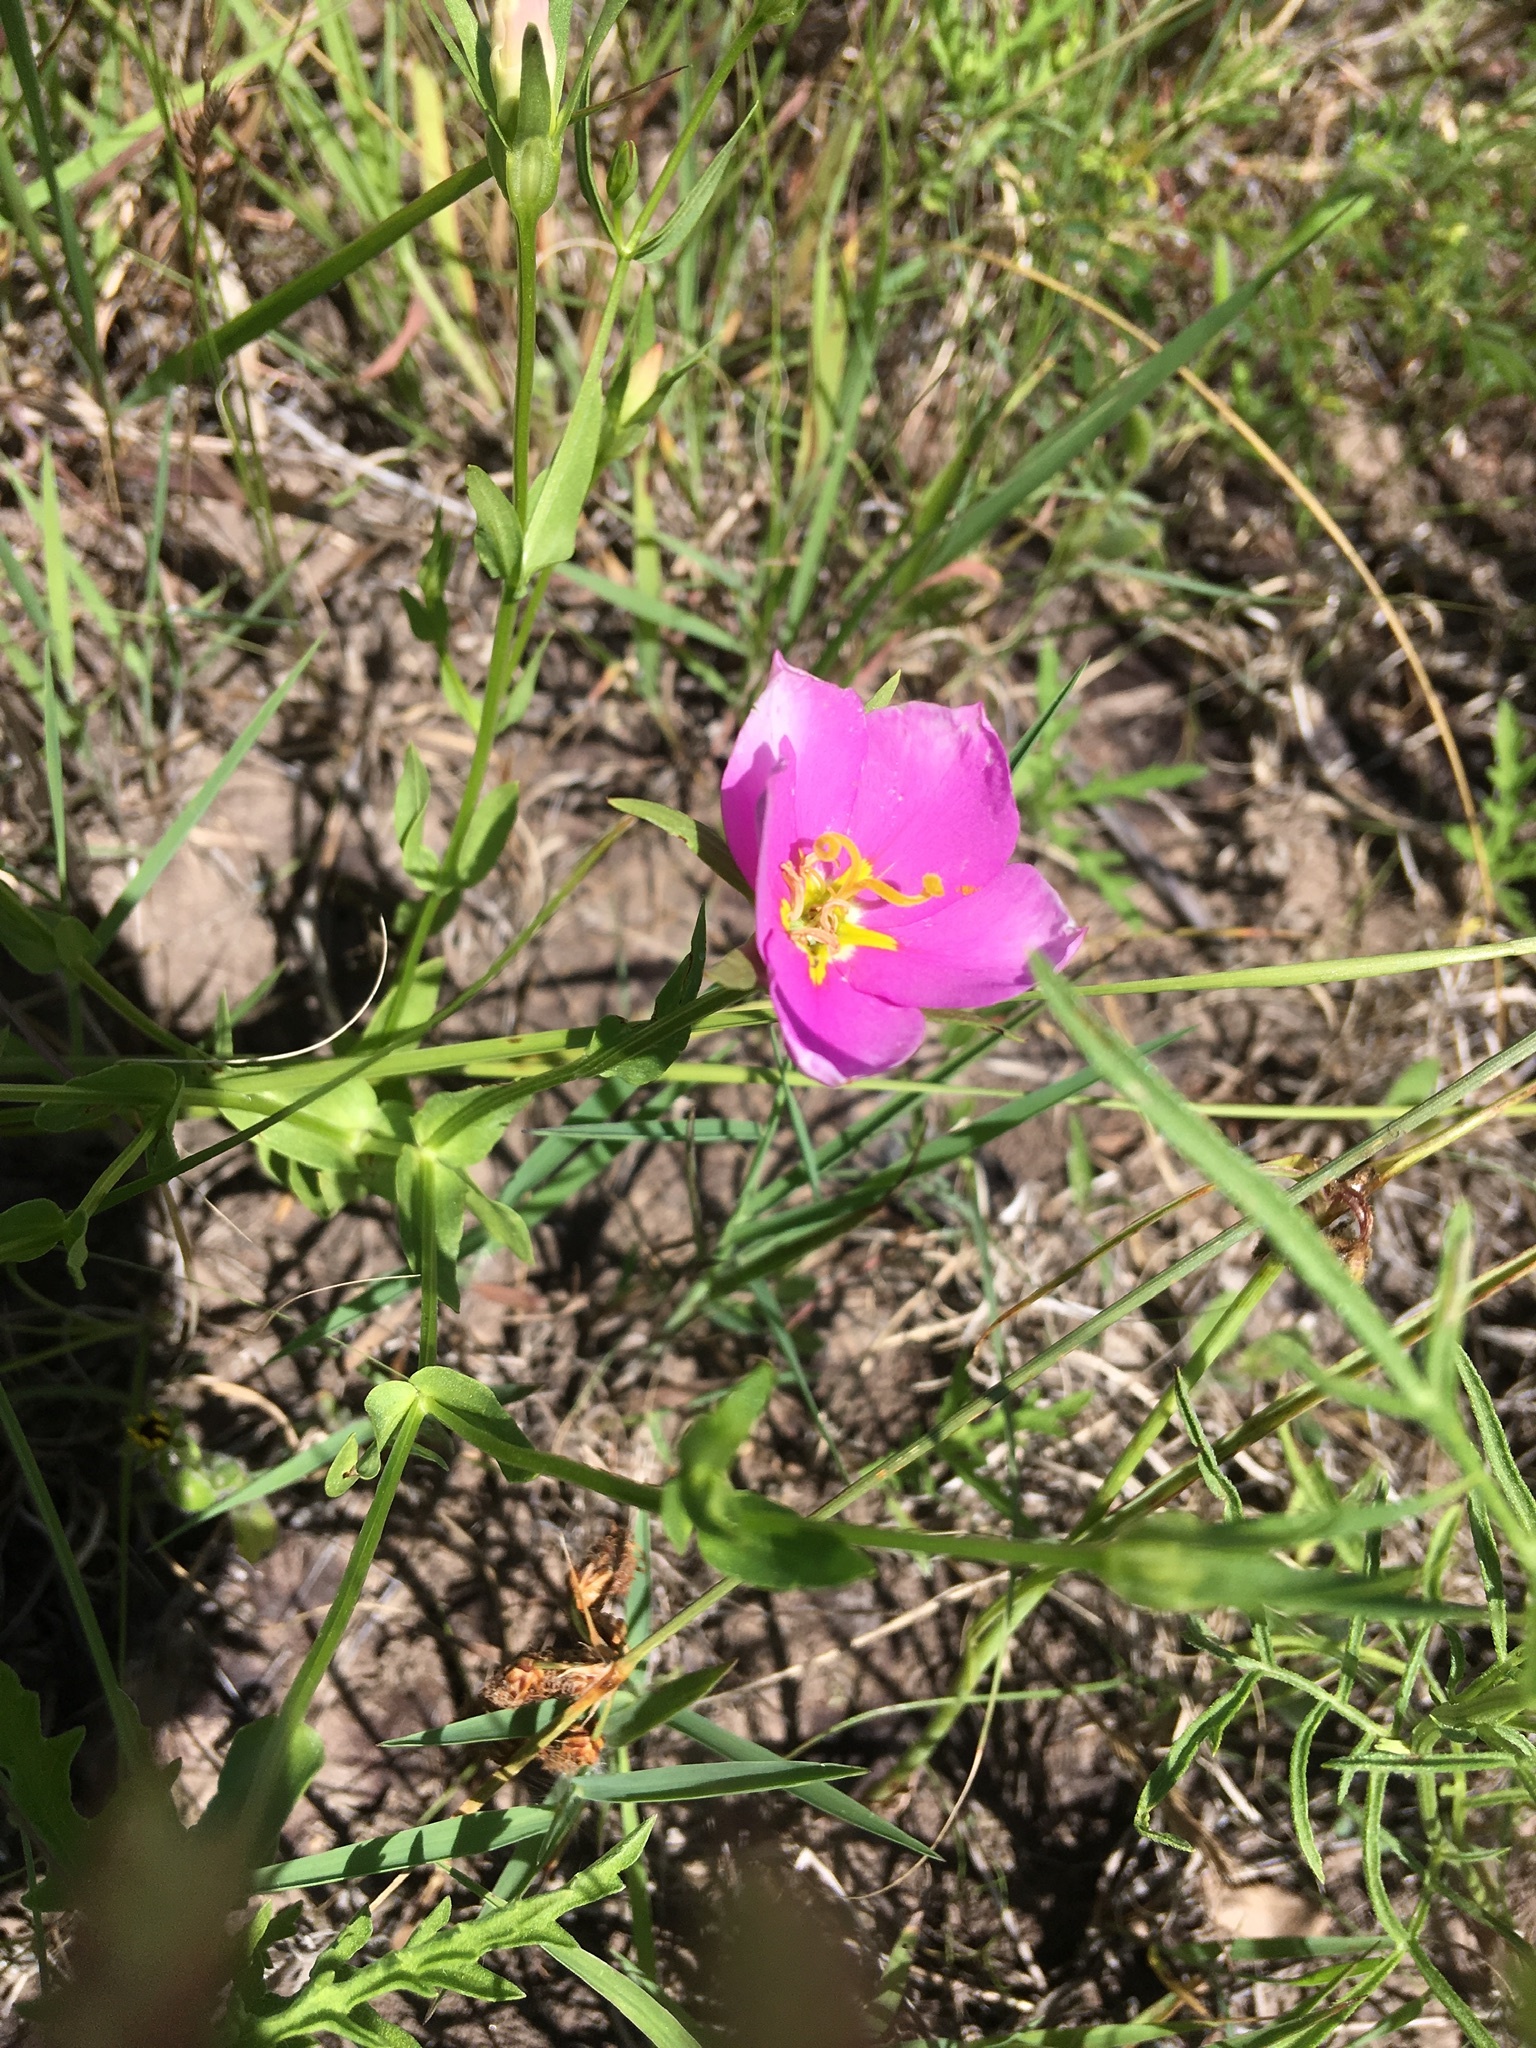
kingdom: Plantae
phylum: Tracheophyta
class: Magnoliopsida
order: Gentianales
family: Gentianaceae
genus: Sabatia
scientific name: Sabatia campestris
